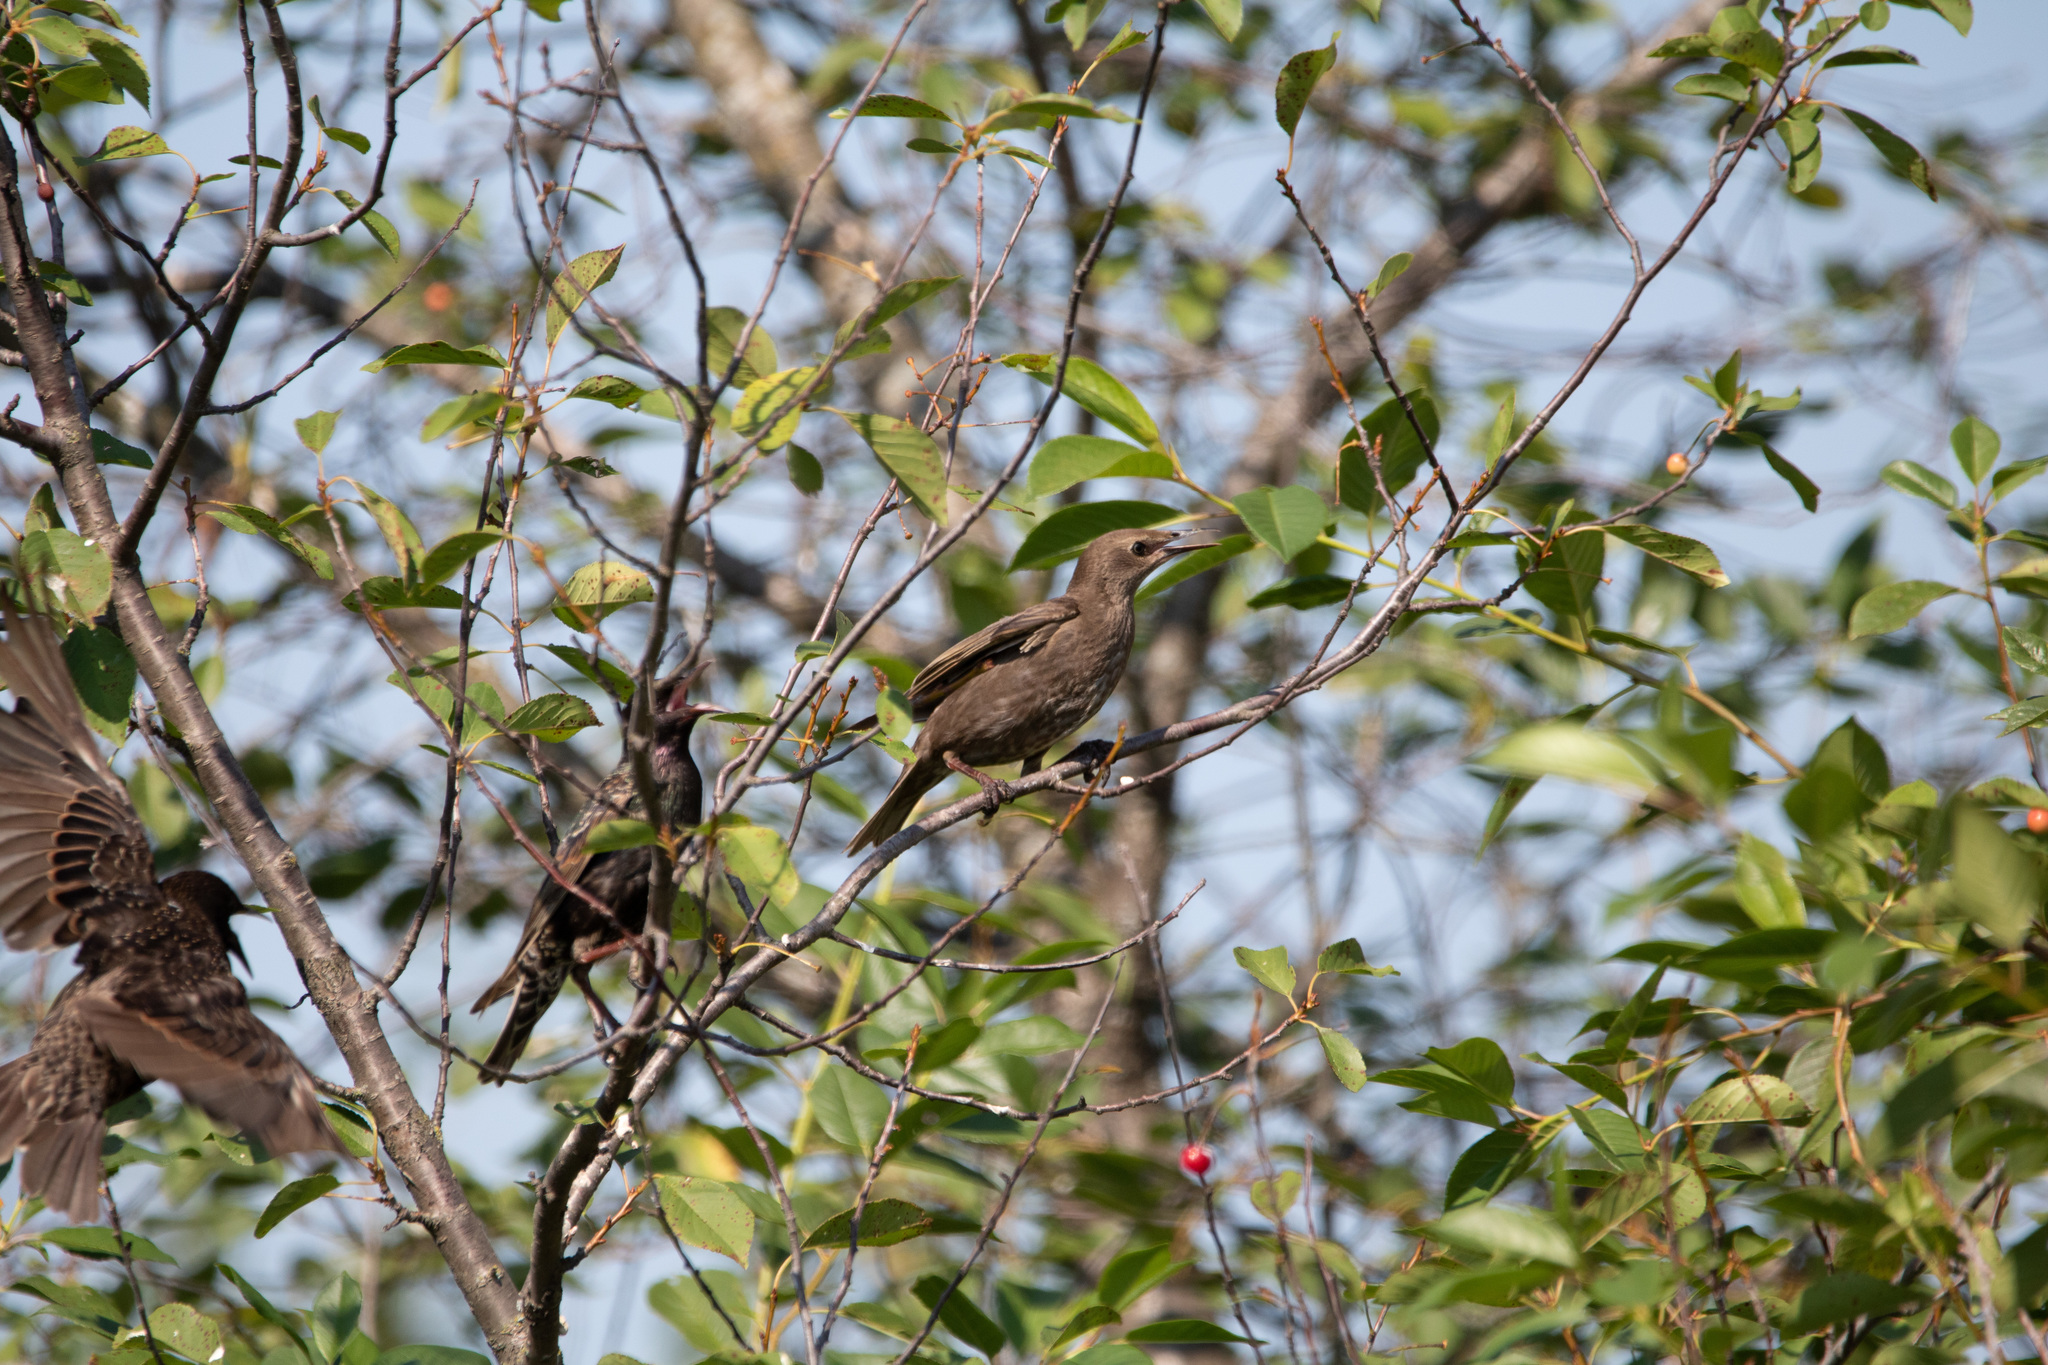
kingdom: Animalia
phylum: Chordata
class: Aves
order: Passeriformes
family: Sturnidae
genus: Sturnus
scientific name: Sturnus vulgaris
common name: Common starling
